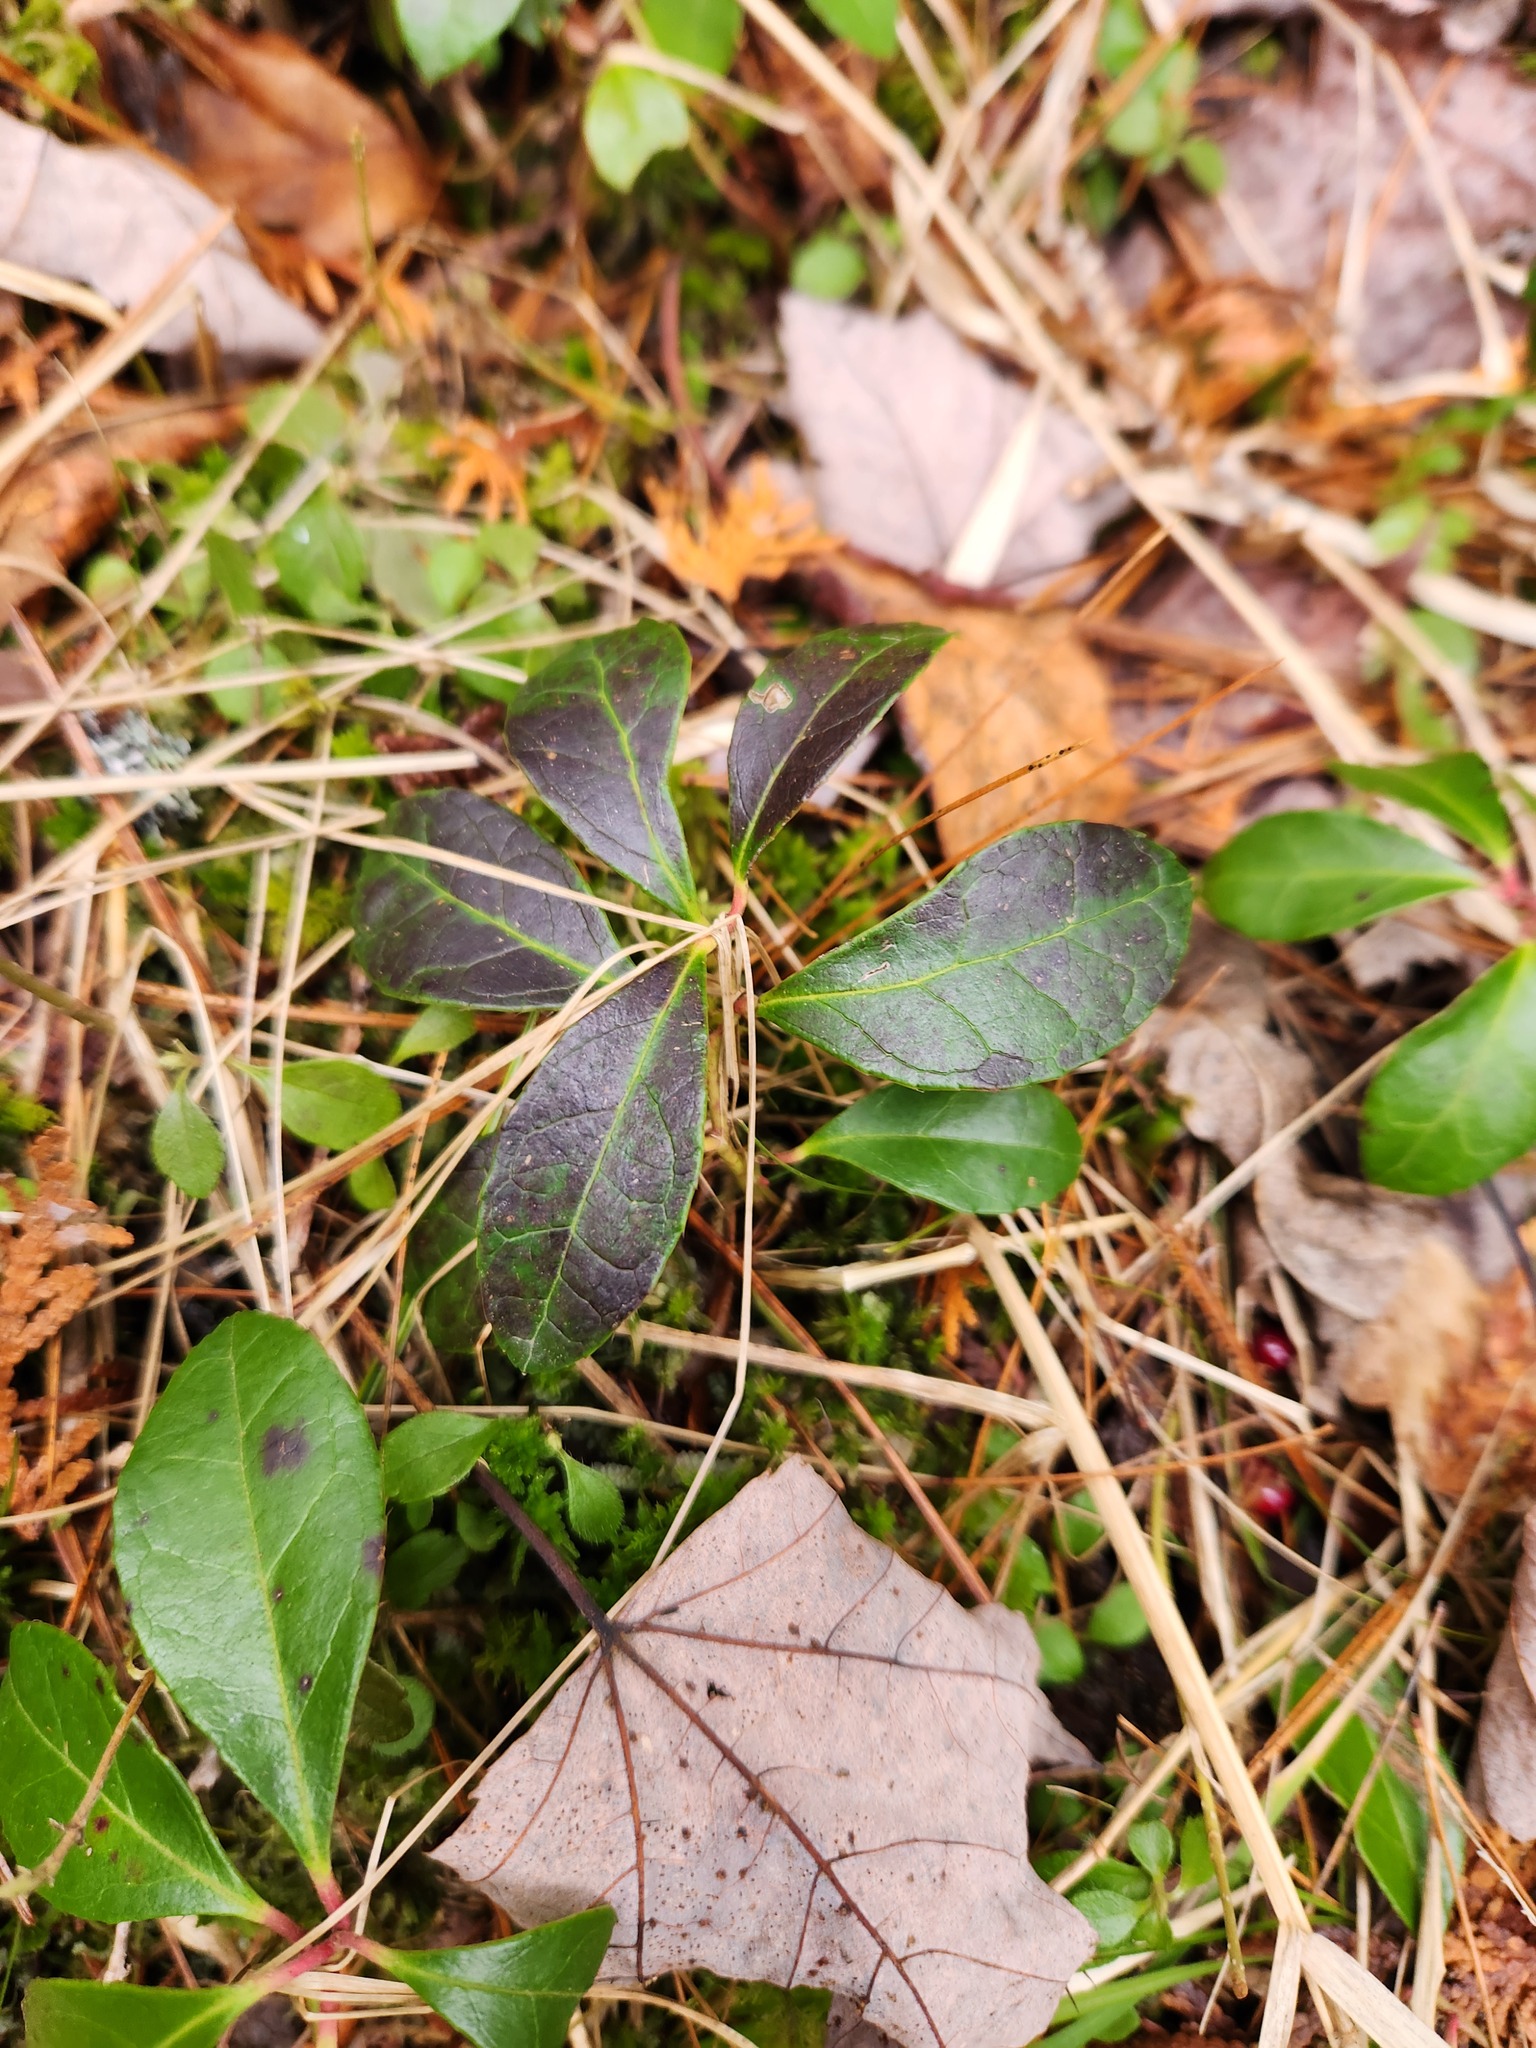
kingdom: Plantae
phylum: Tracheophyta
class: Magnoliopsida
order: Ericales
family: Ericaceae
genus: Gaultheria
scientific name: Gaultheria procumbens
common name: Checkerberry
